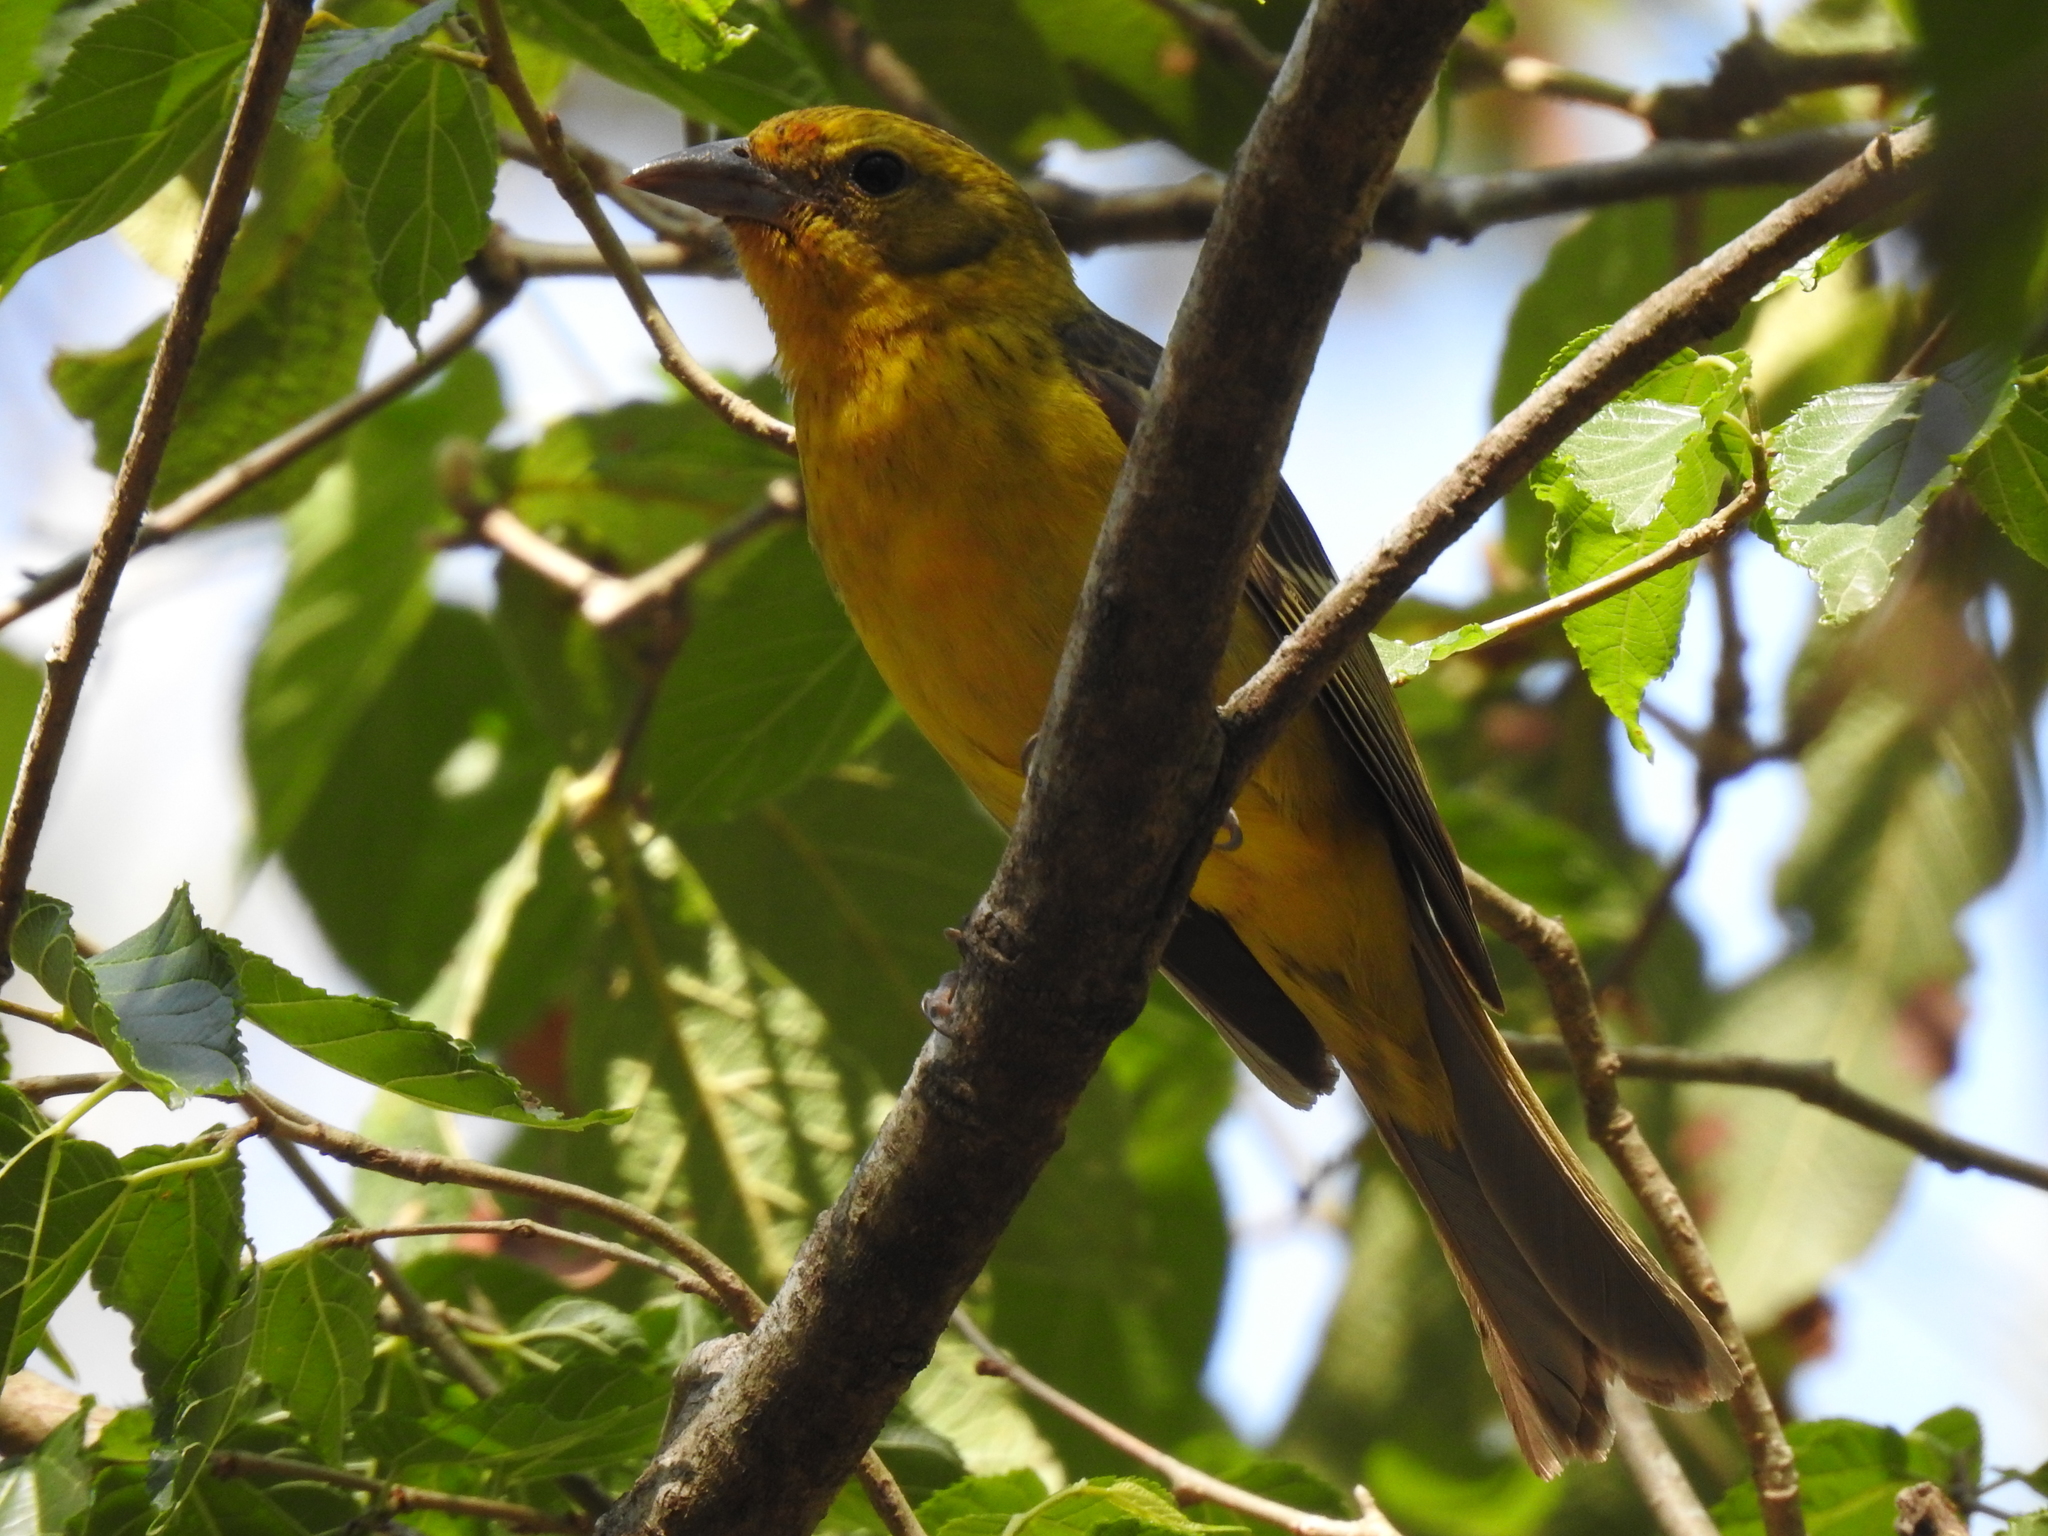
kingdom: Animalia
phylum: Chordata
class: Aves
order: Passeriformes
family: Cardinalidae
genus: Piranga
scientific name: Piranga bidentata
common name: Flame-colored tanager
